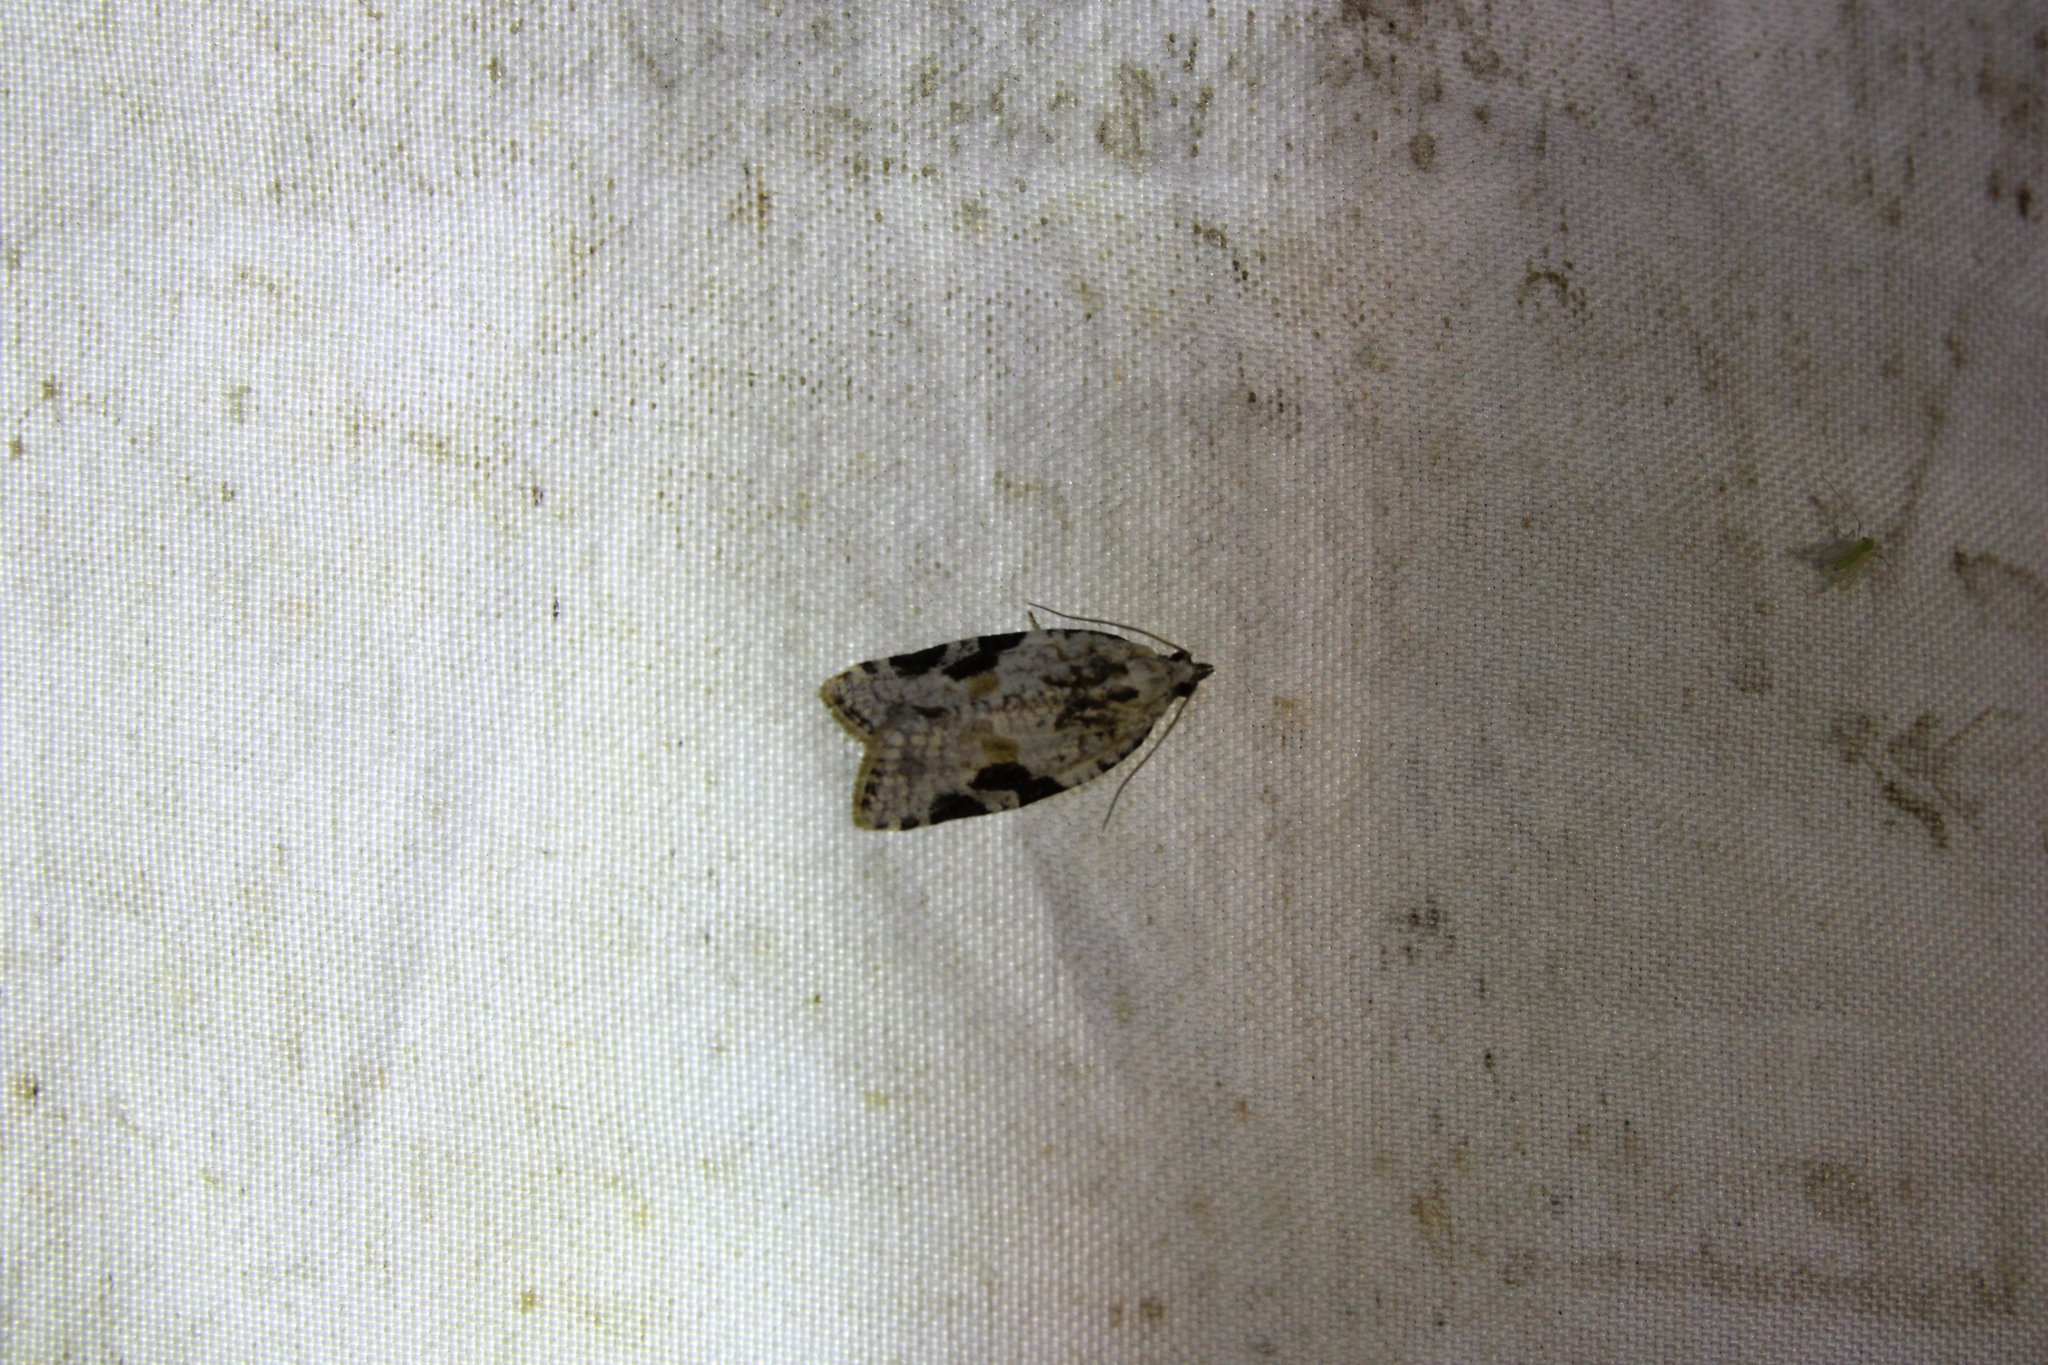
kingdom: Animalia
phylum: Arthropoda
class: Insecta
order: Lepidoptera
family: Tortricidae
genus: Argyrotaenia
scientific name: Argyrotaenia mariana
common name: Gray-banded leafroller moth
